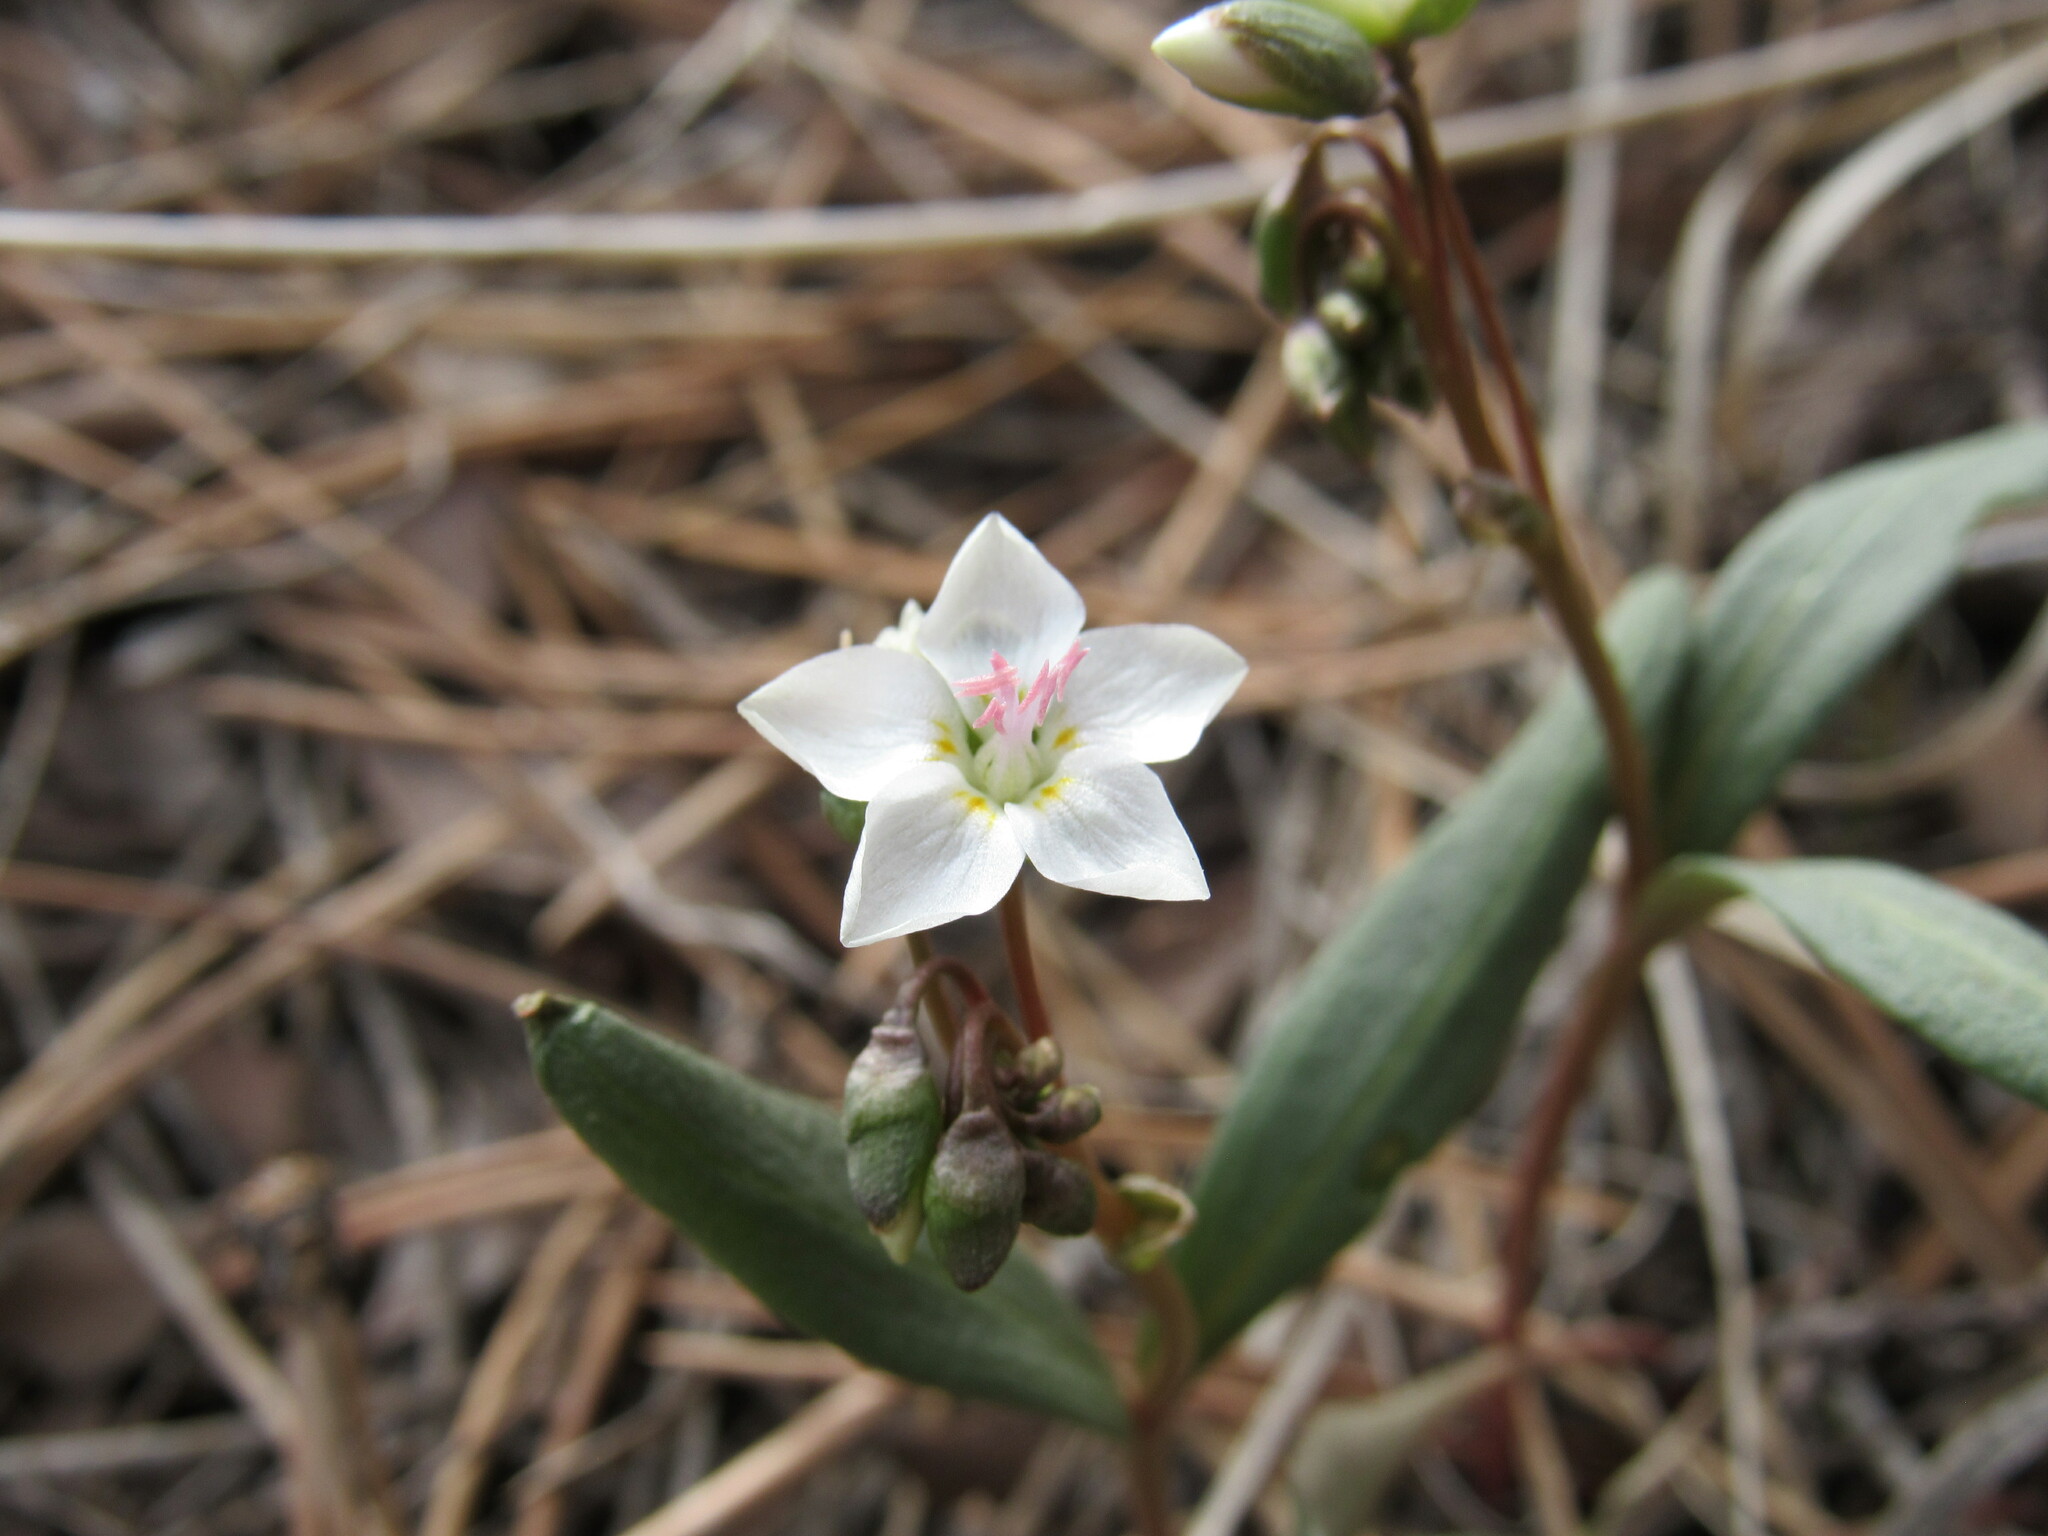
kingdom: Plantae
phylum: Tracheophyta
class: Magnoliopsida
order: Caryophyllales
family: Montiaceae
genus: Claytonia
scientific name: Claytonia rosea
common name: Rocky mountain spring-beauty
